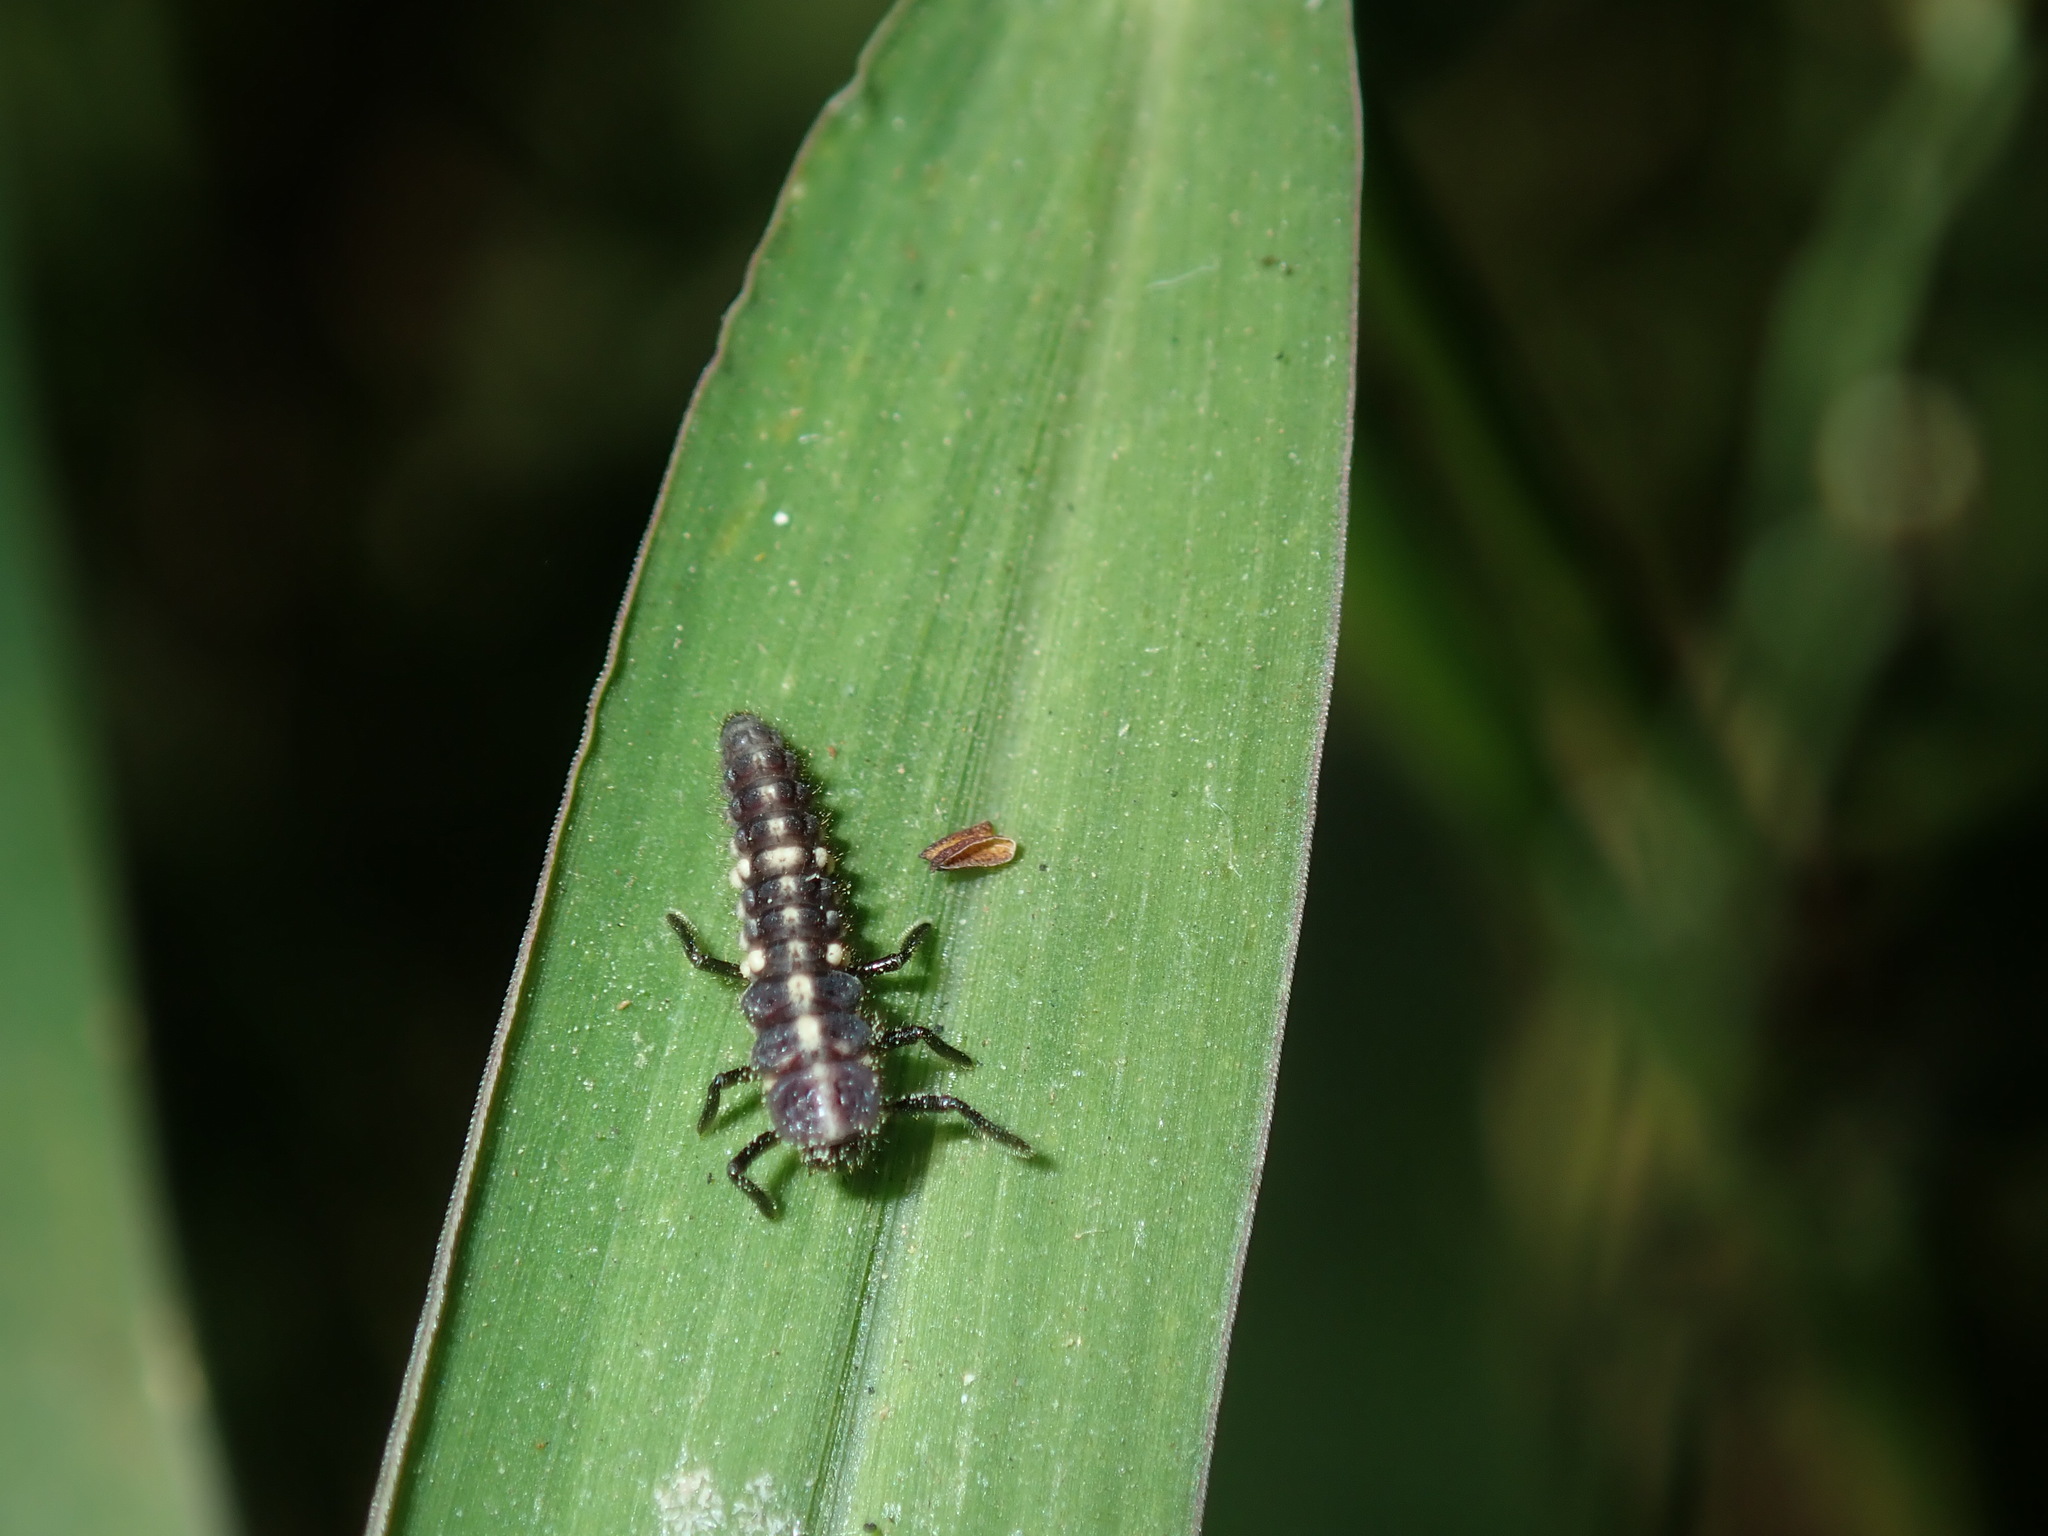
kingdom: Animalia
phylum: Arthropoda
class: Insecta
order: Coleoptera
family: Coccinellidae
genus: Micraspis
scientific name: Micraspis frenata
